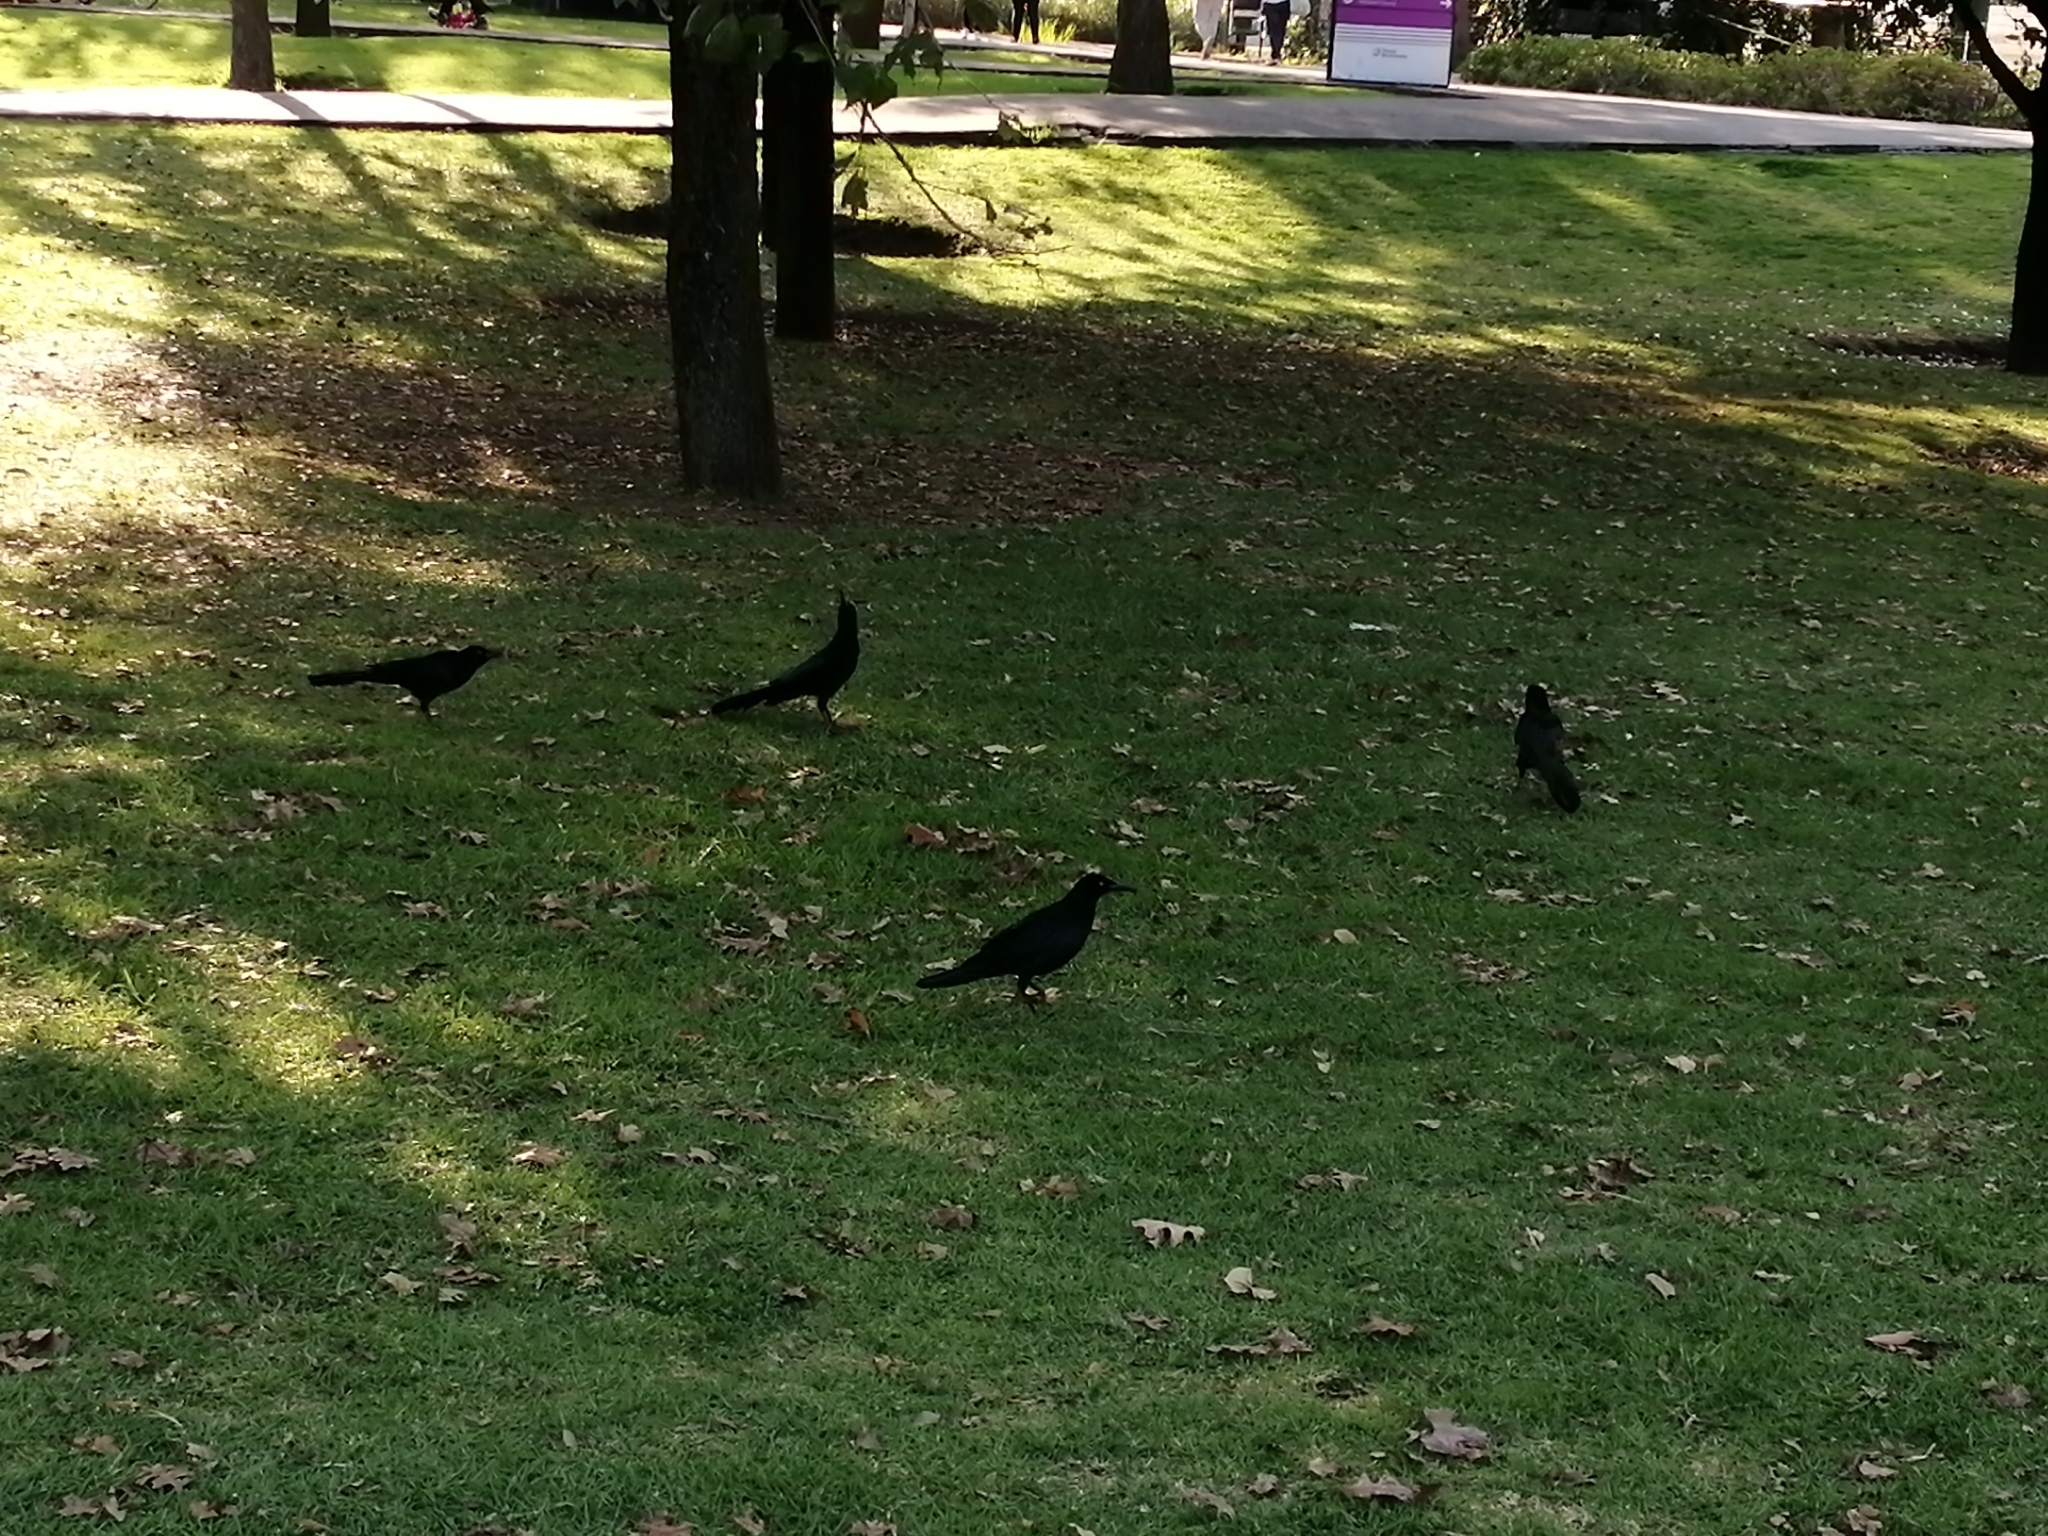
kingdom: Animalia
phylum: Chordata
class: Aves
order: Passeriformes
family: Icteridae
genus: Quiscalus
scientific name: Quiscalus mexicanus
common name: Great-tailed grackle
